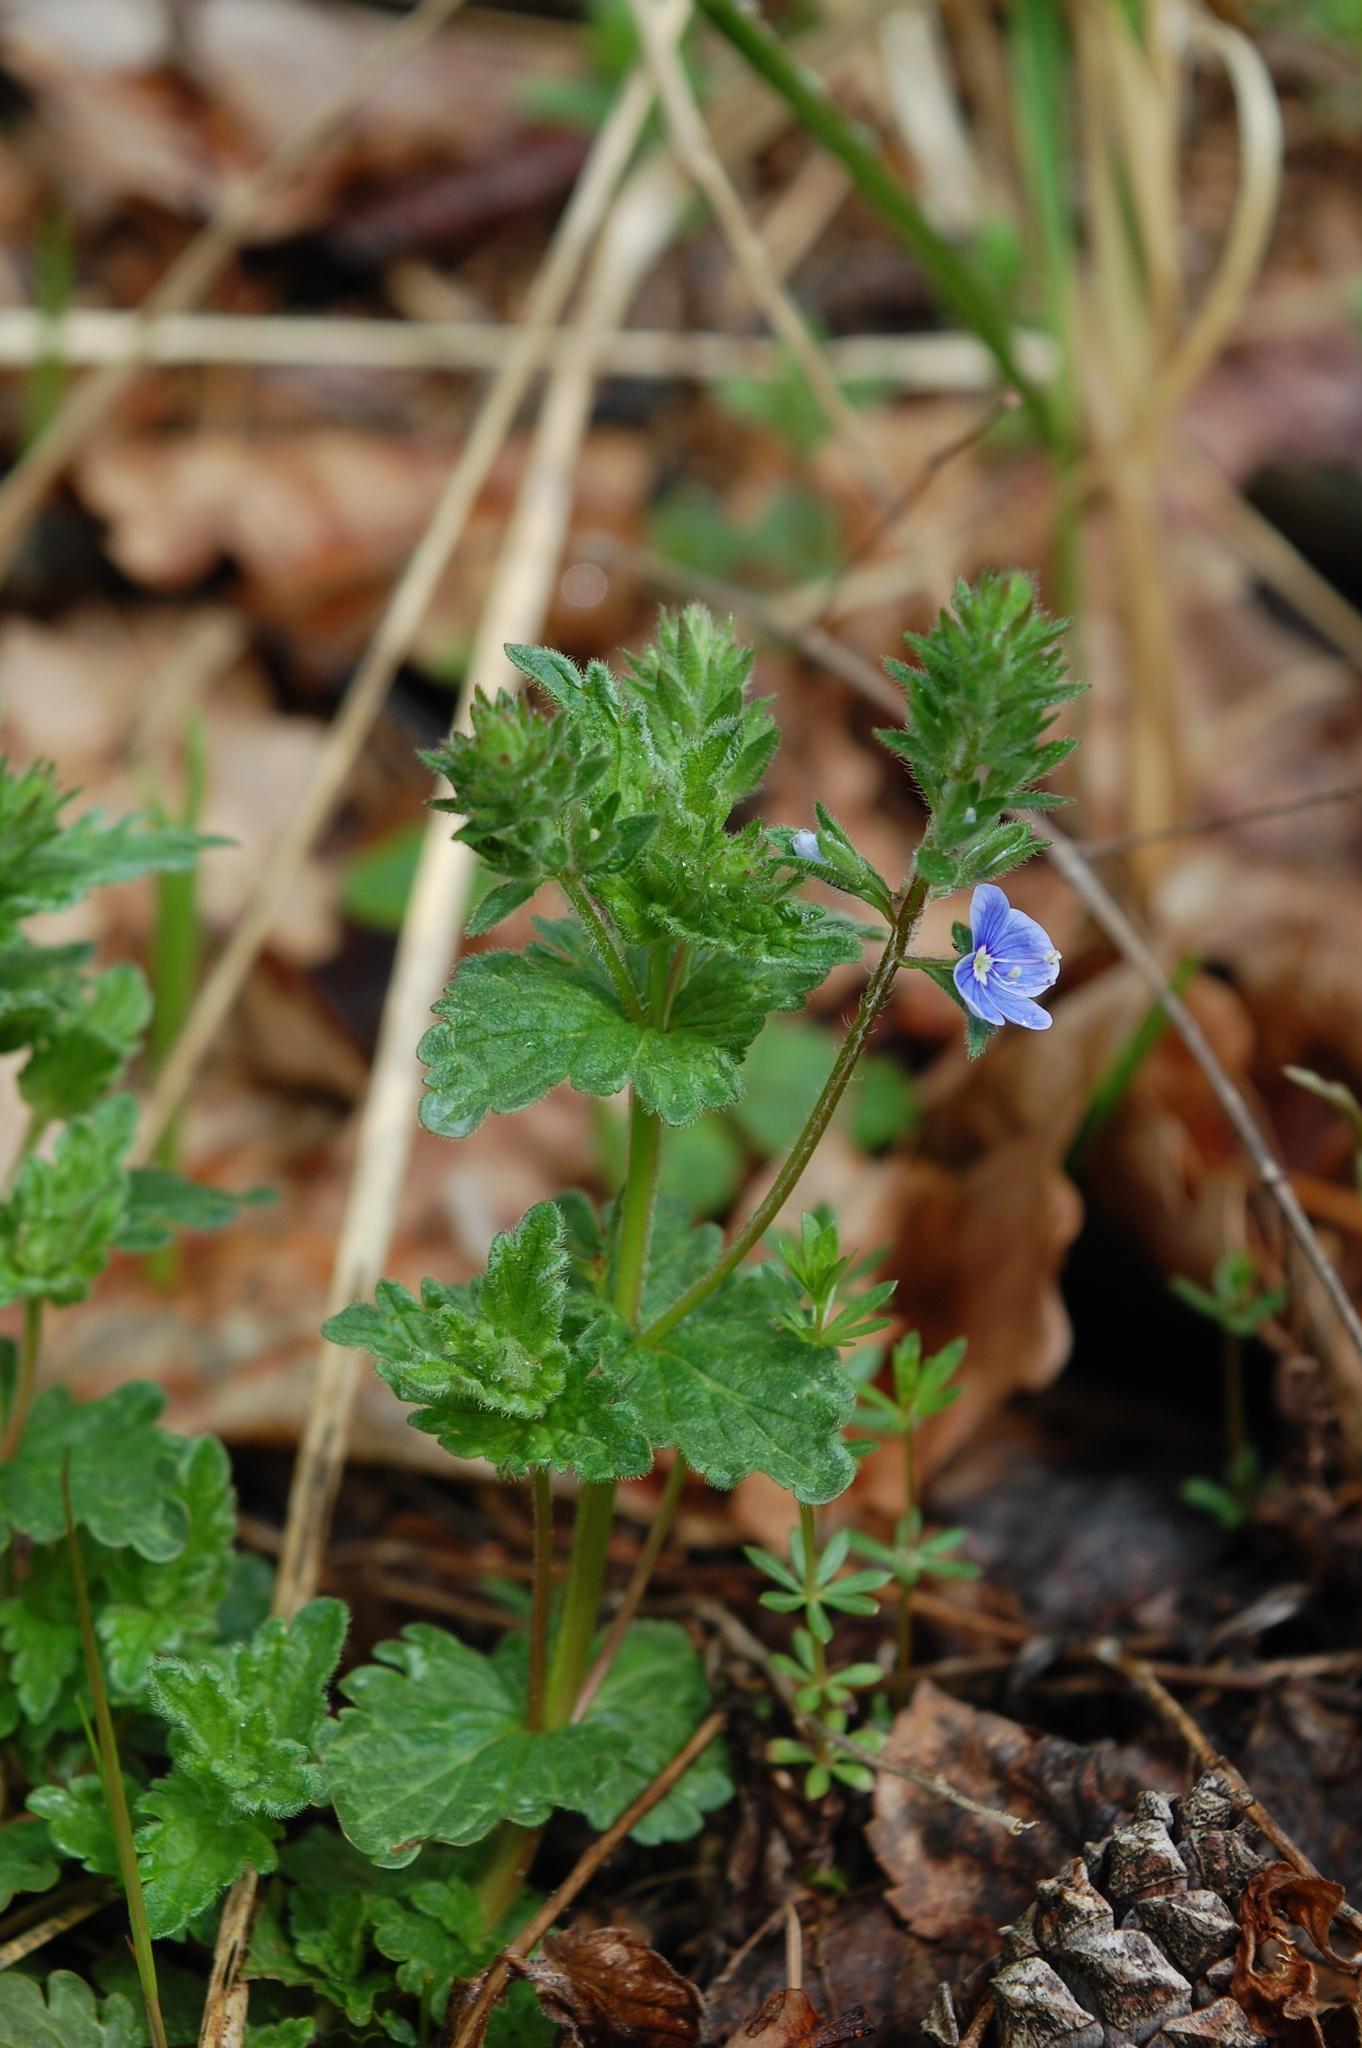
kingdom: Plantae
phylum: Tracheophyta
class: Magnoliopsida
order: Lamiales
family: Plantaginaceae
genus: Veronica
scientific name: Veronica chamaedrys
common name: Germander speedwell
